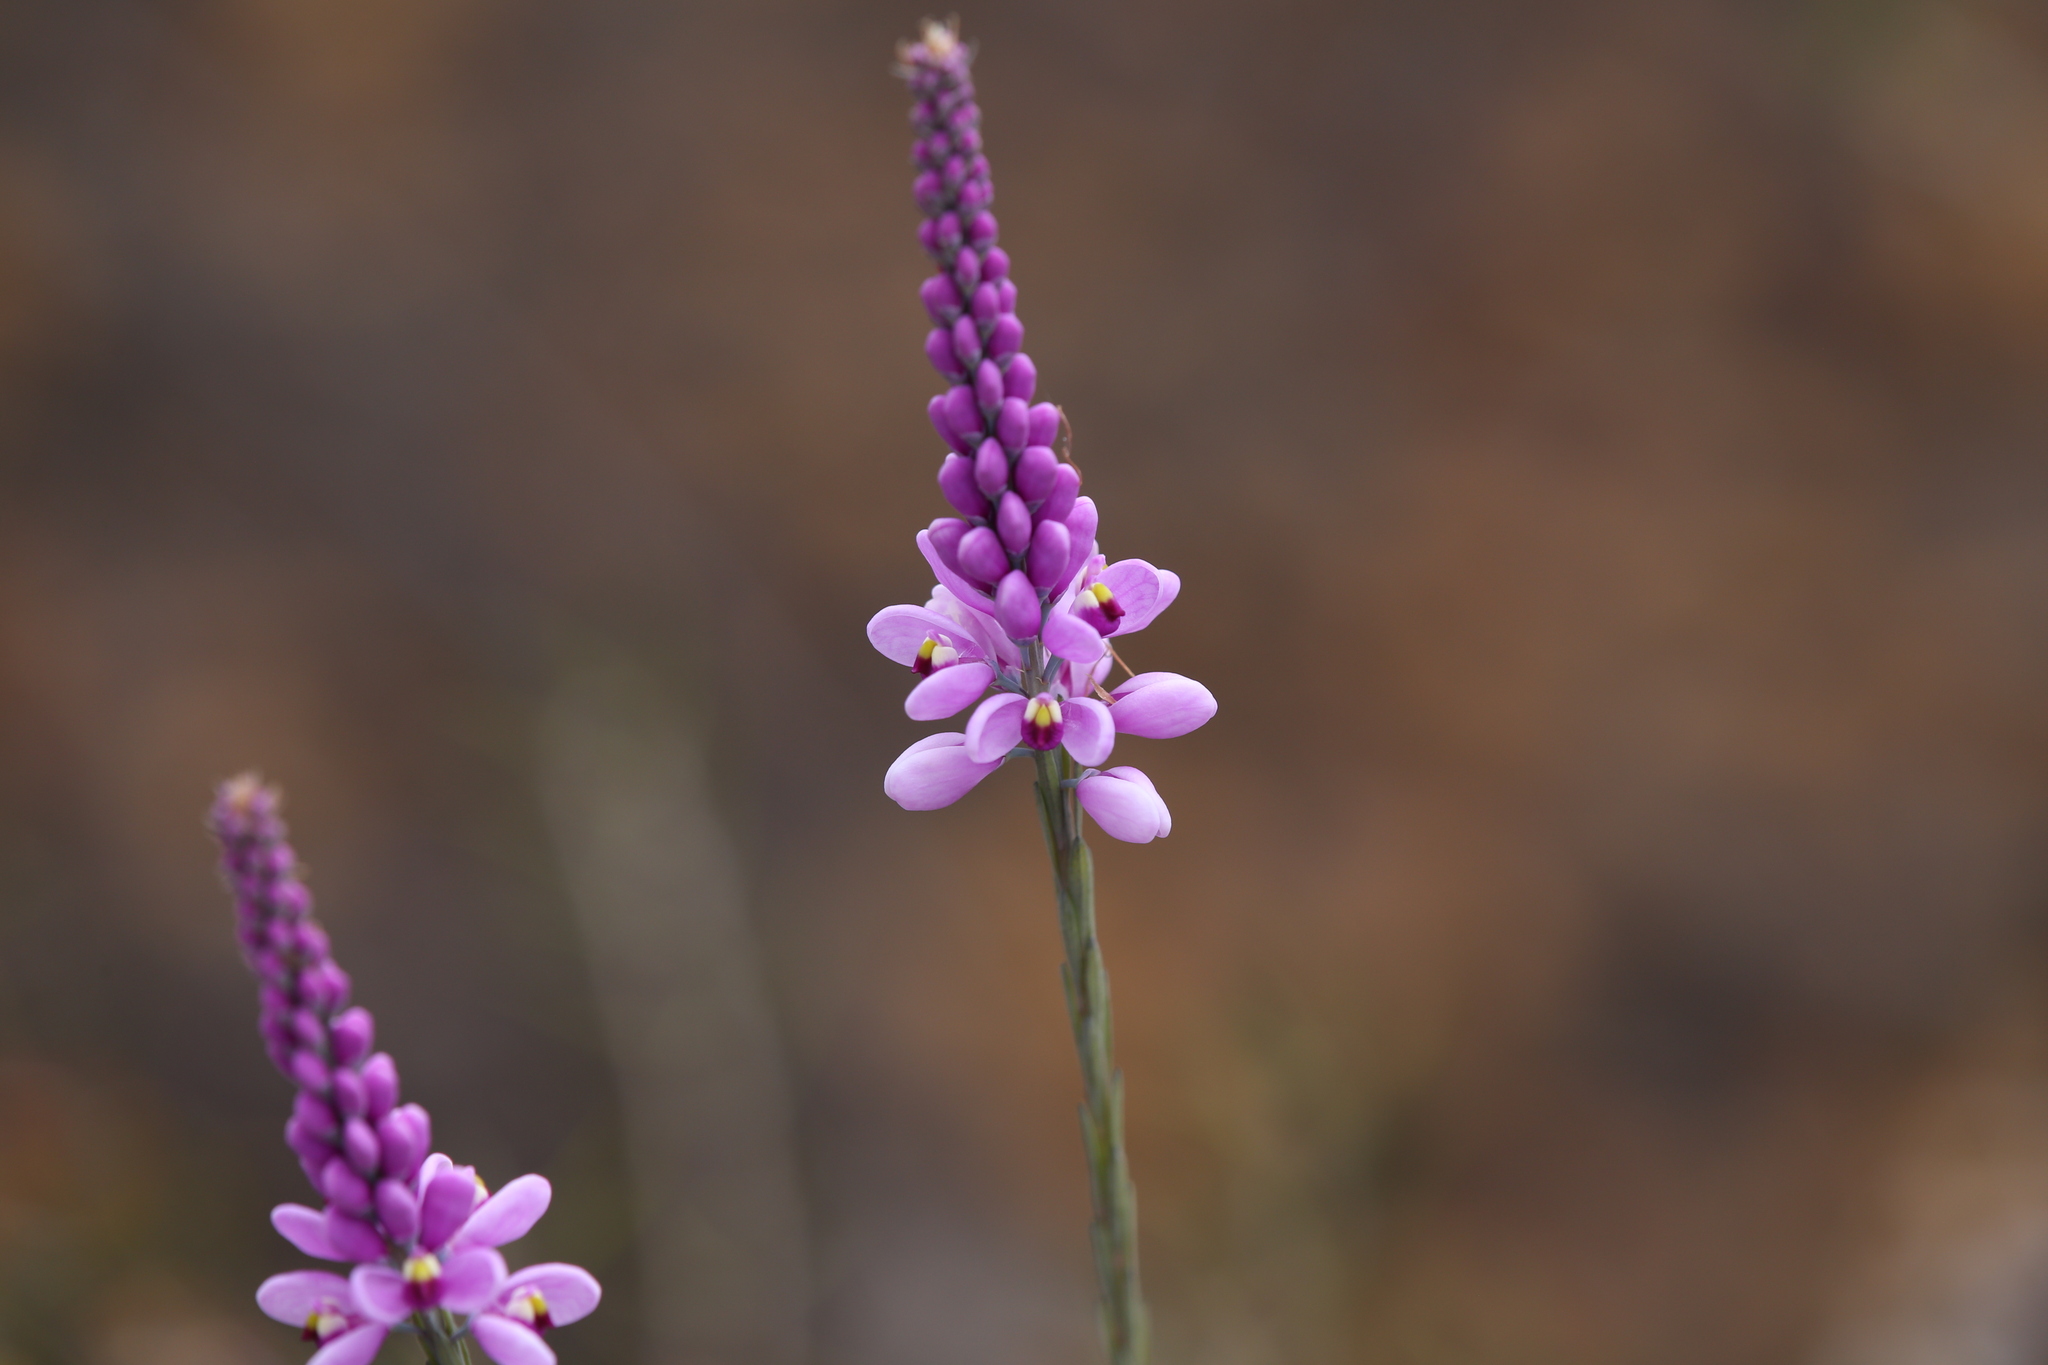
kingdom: Plantae
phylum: Tracheophyta
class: Magnoliopsida
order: Fabales
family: Polygalaceae
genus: Comesperma
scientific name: Comesperma virgatum
